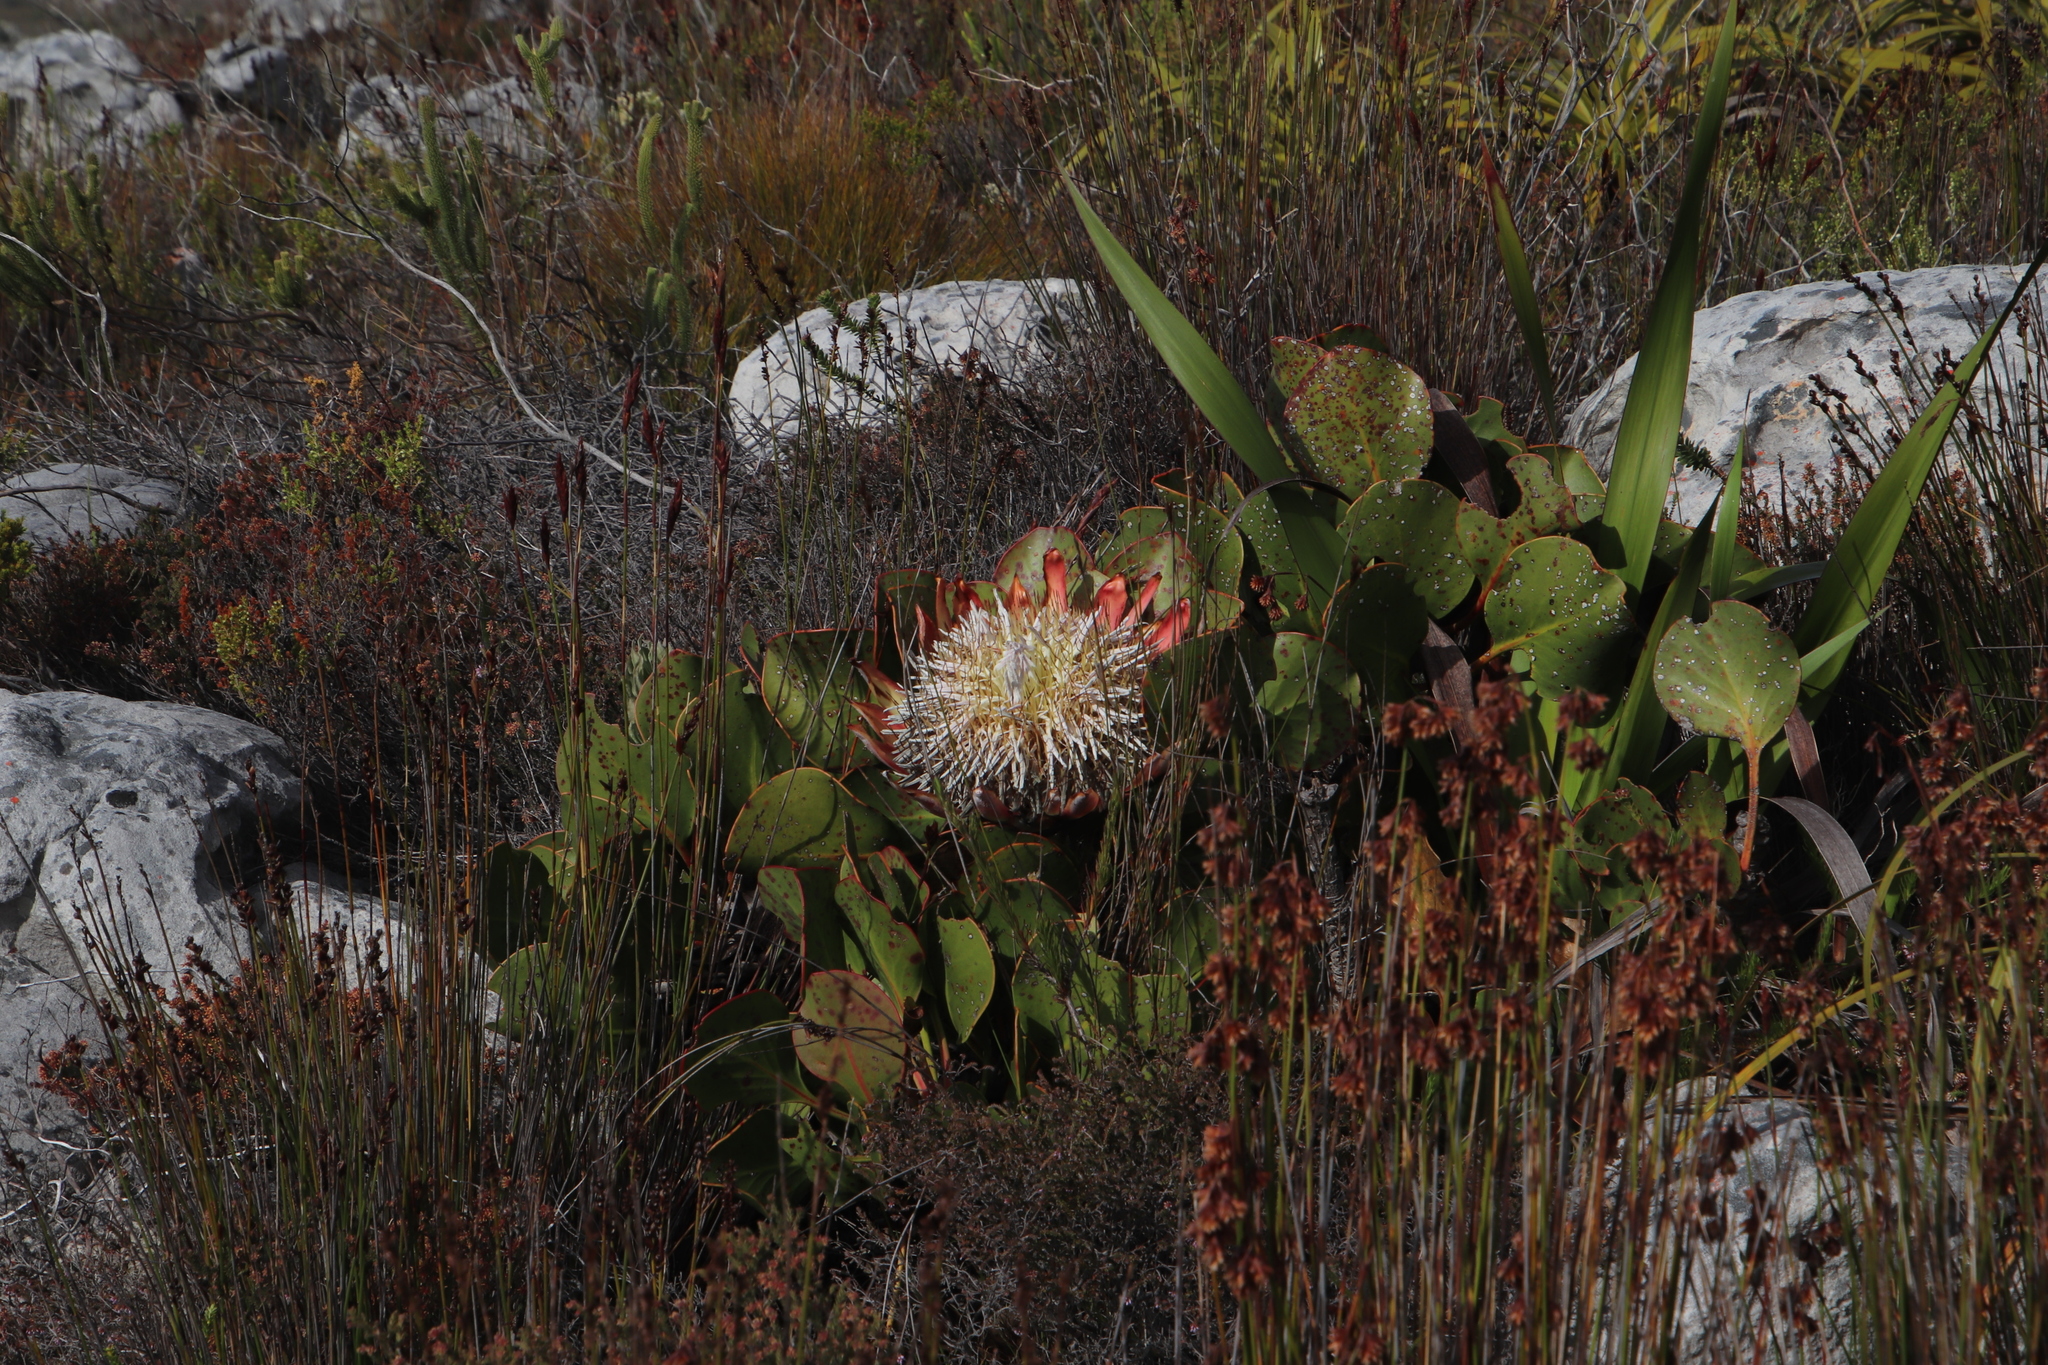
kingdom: Plantae
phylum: Tracheophyta
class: Magnoliopsida
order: Proteales
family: Proteaceae
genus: Protea
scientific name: Protea cynaroides
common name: King protea
